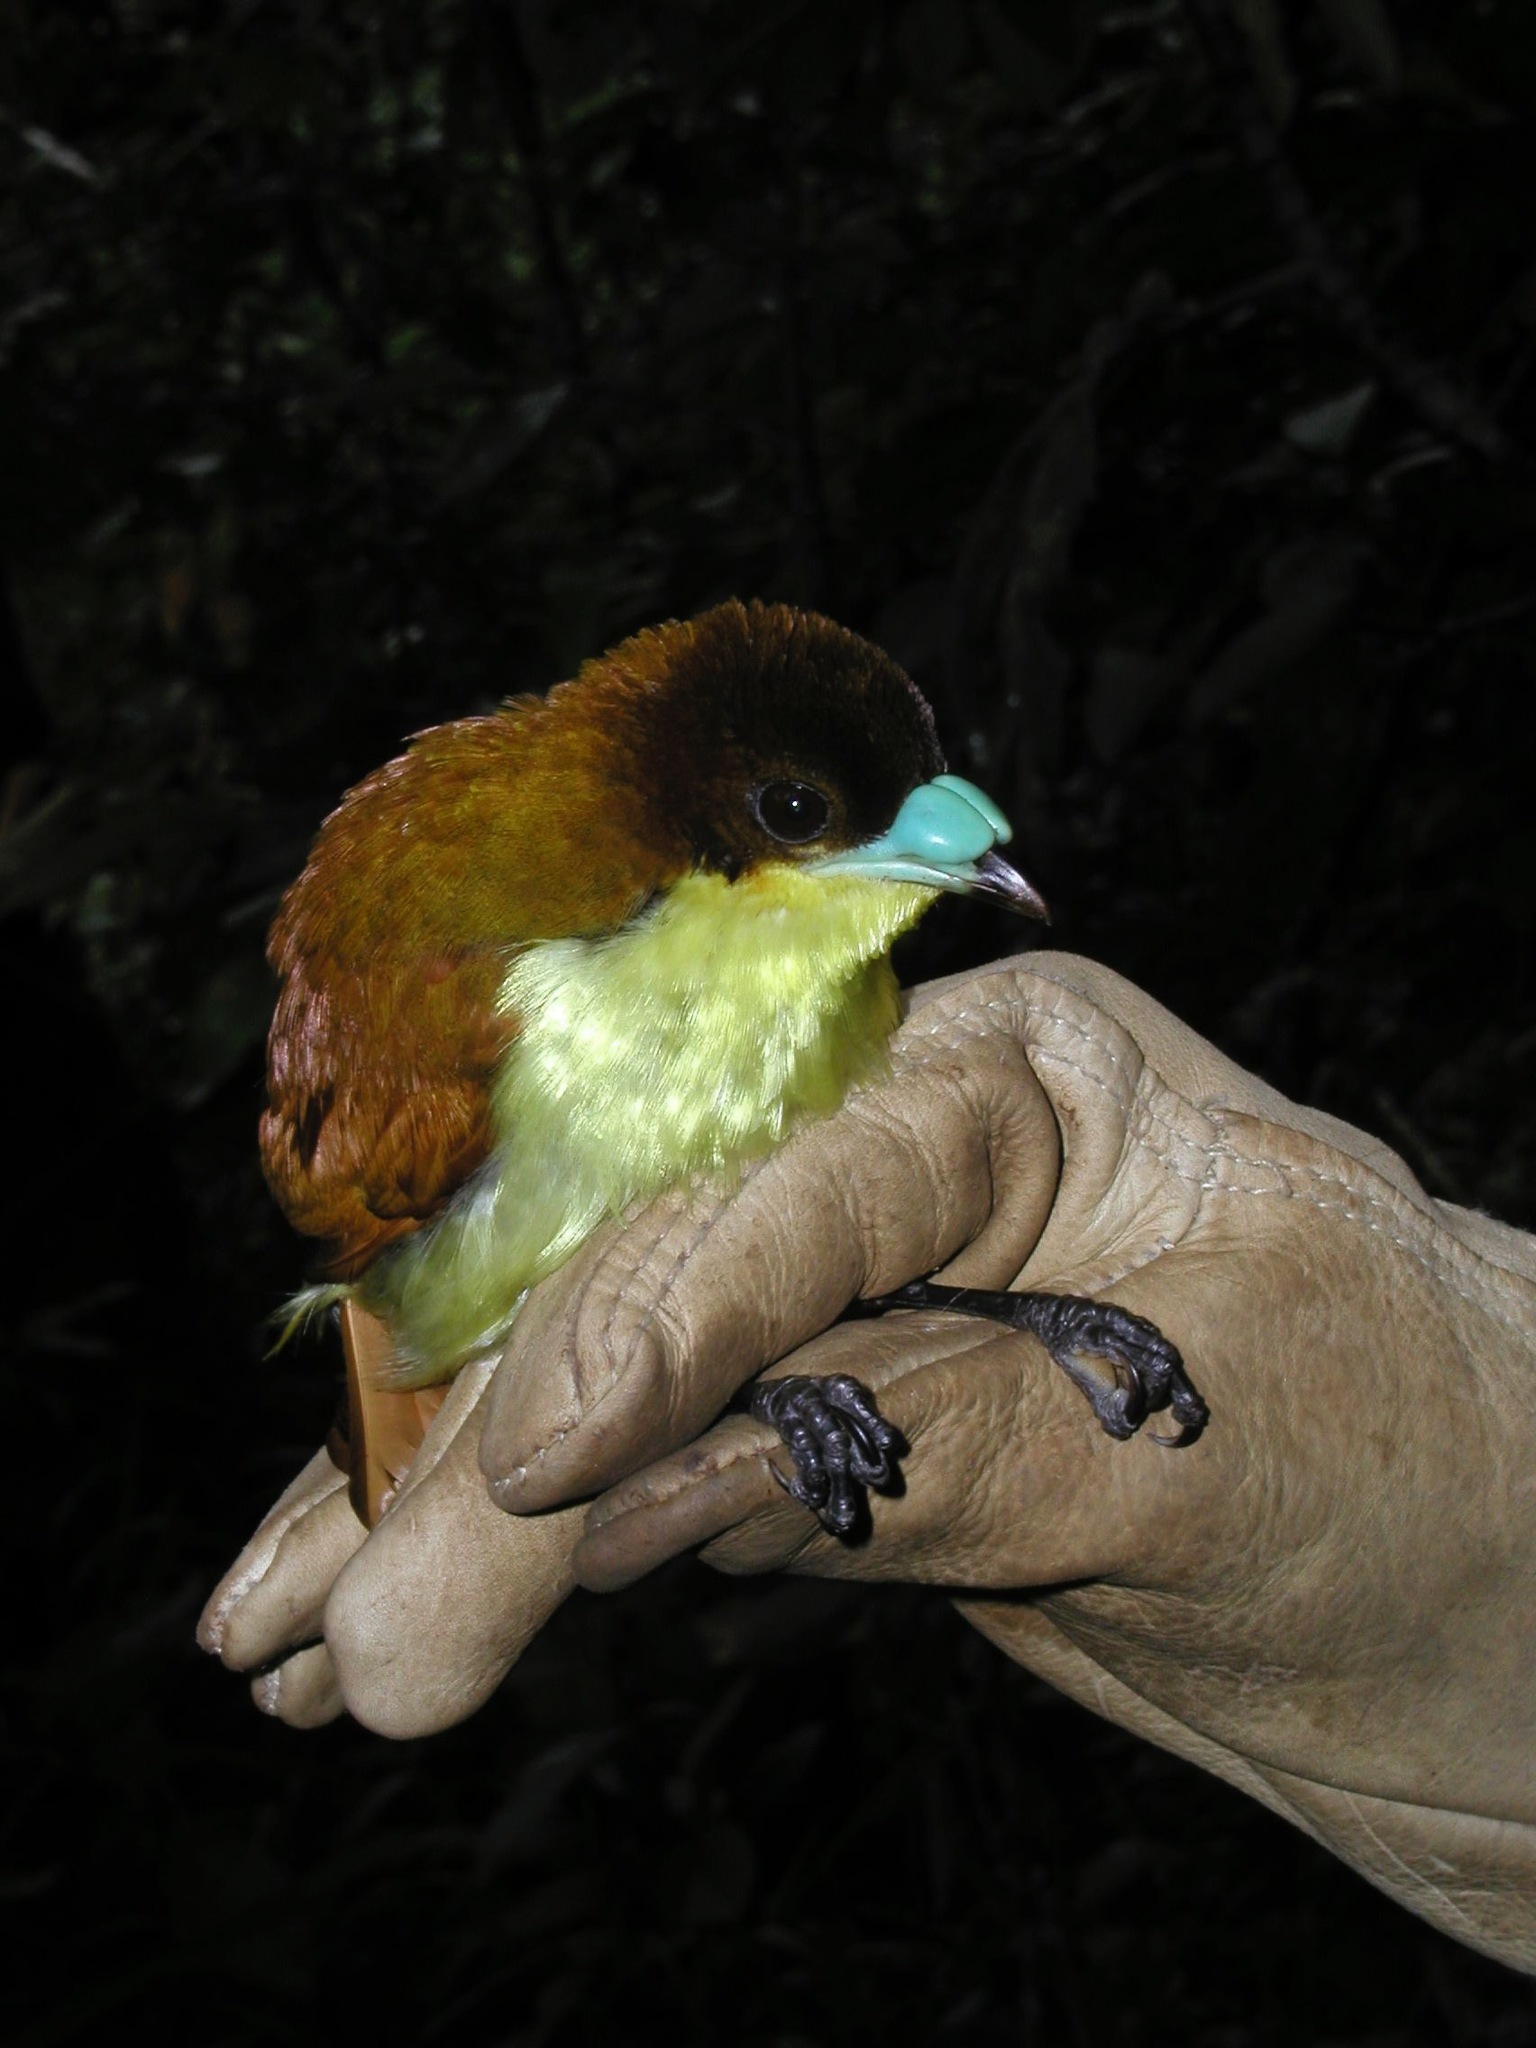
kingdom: Animalia
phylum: Chordata
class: Aves
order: Passeriformes
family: Cnemophilidae
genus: Loboparadisea
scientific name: Loboparadisea sericea
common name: Yellow-breasted satinbird
